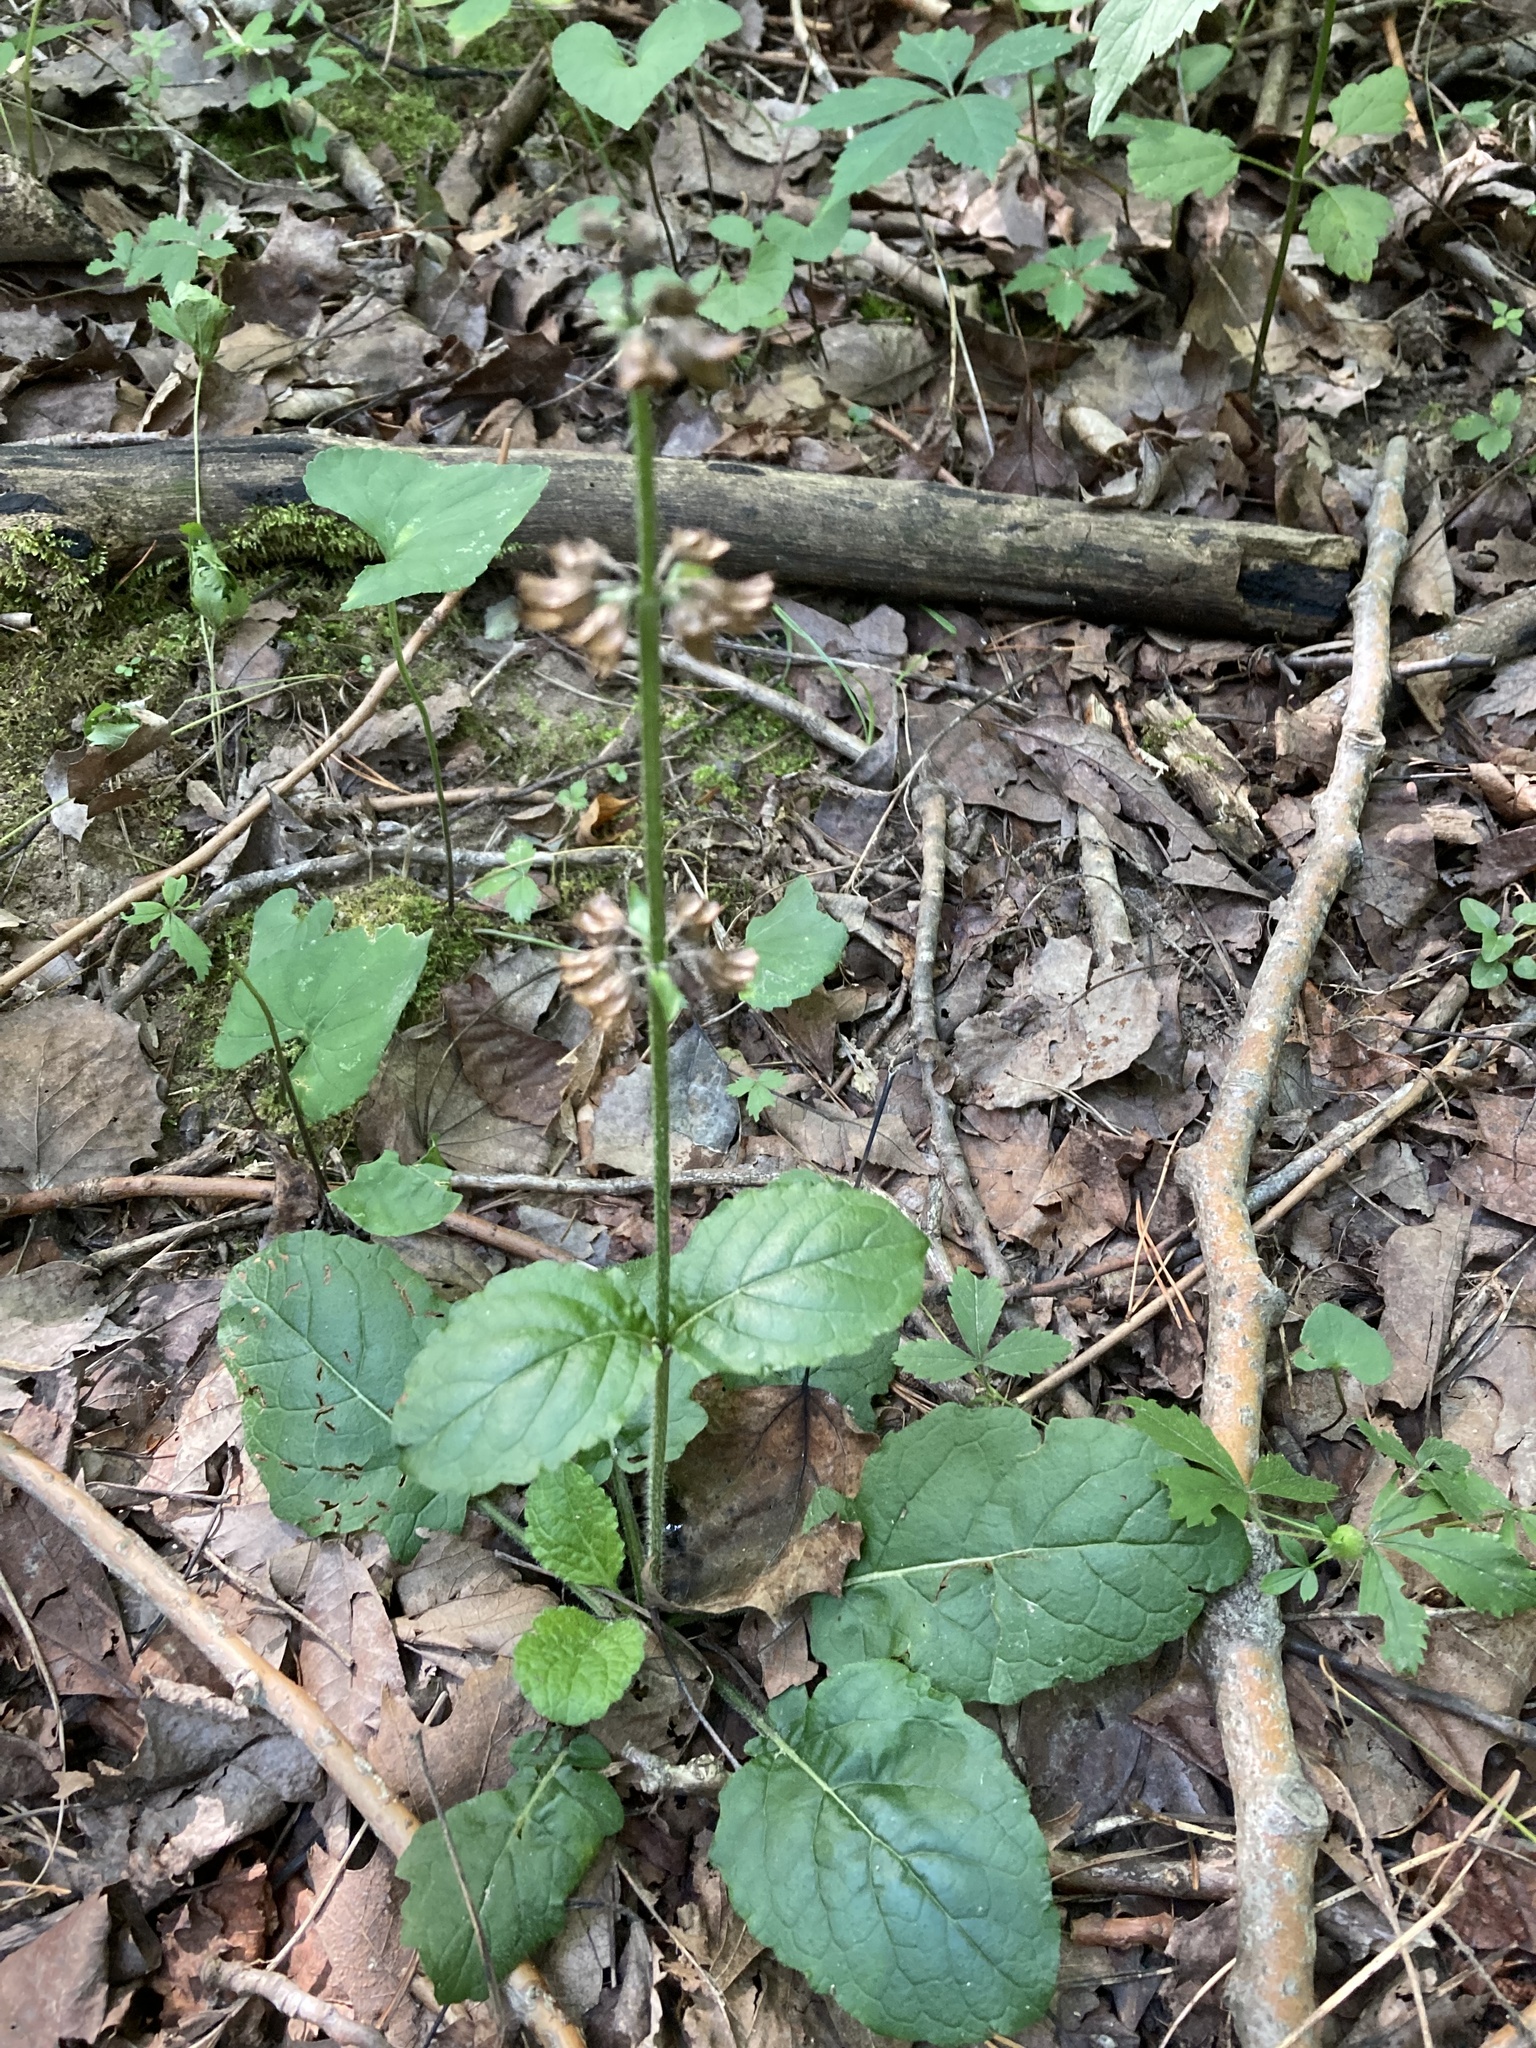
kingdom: Plantae
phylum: Tracheophyta
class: Magnoliopsida
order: Lamiales
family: Lamiaceae
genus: Salvia
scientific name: Salvia lyrata
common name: Cancerweed
